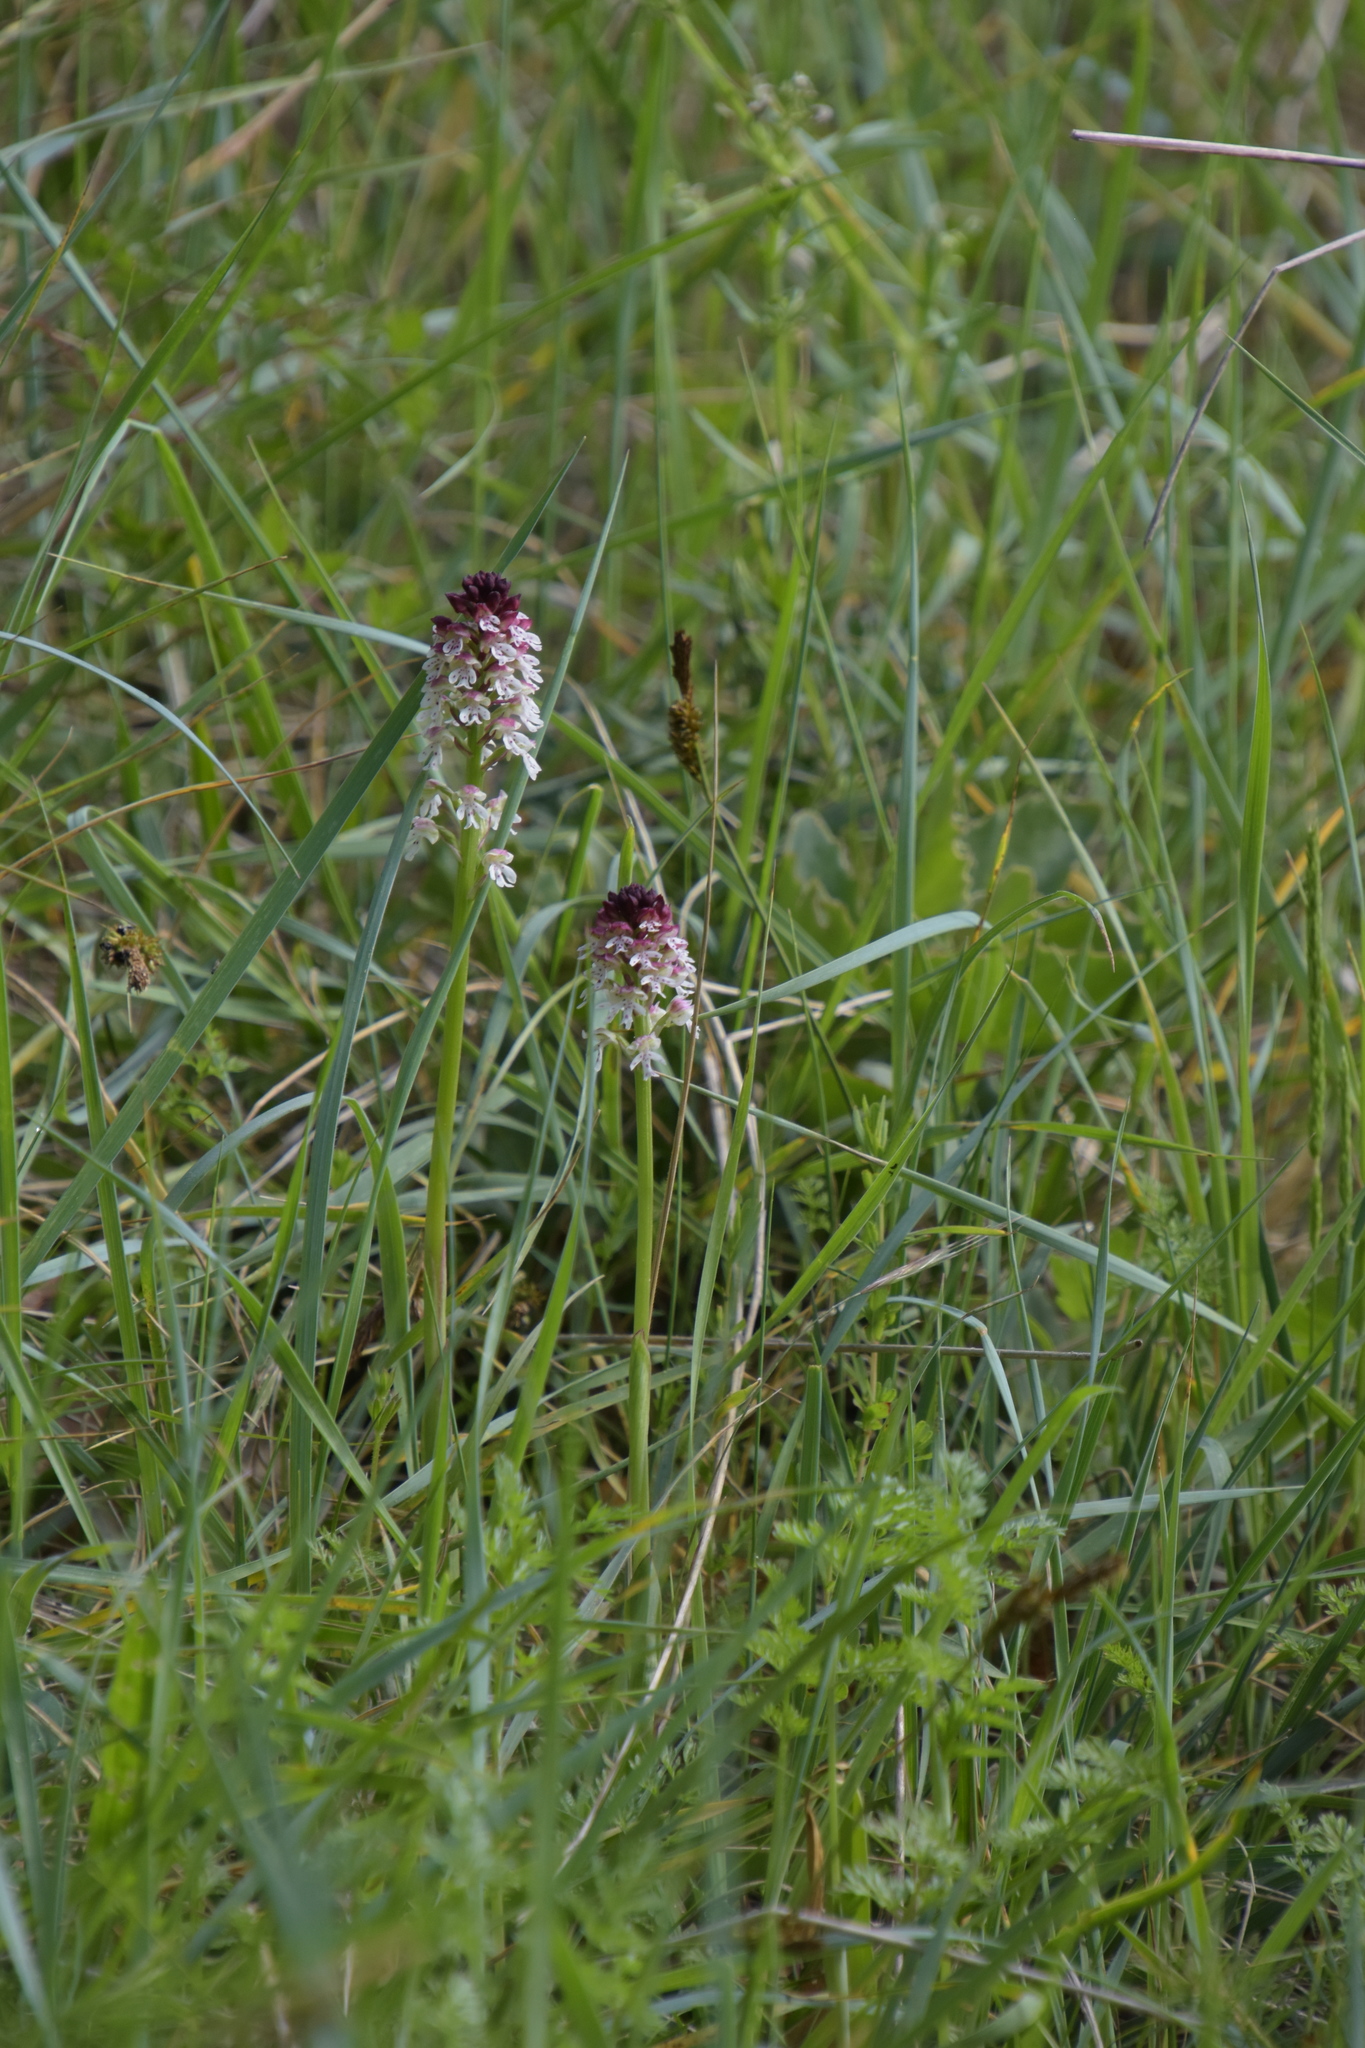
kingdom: Plantae
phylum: Tracheophyta
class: Liliopsida
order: Asparagales
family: Orchidaceae
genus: Neotinea
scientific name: Neotinea ustulata
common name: Burnt orchid
